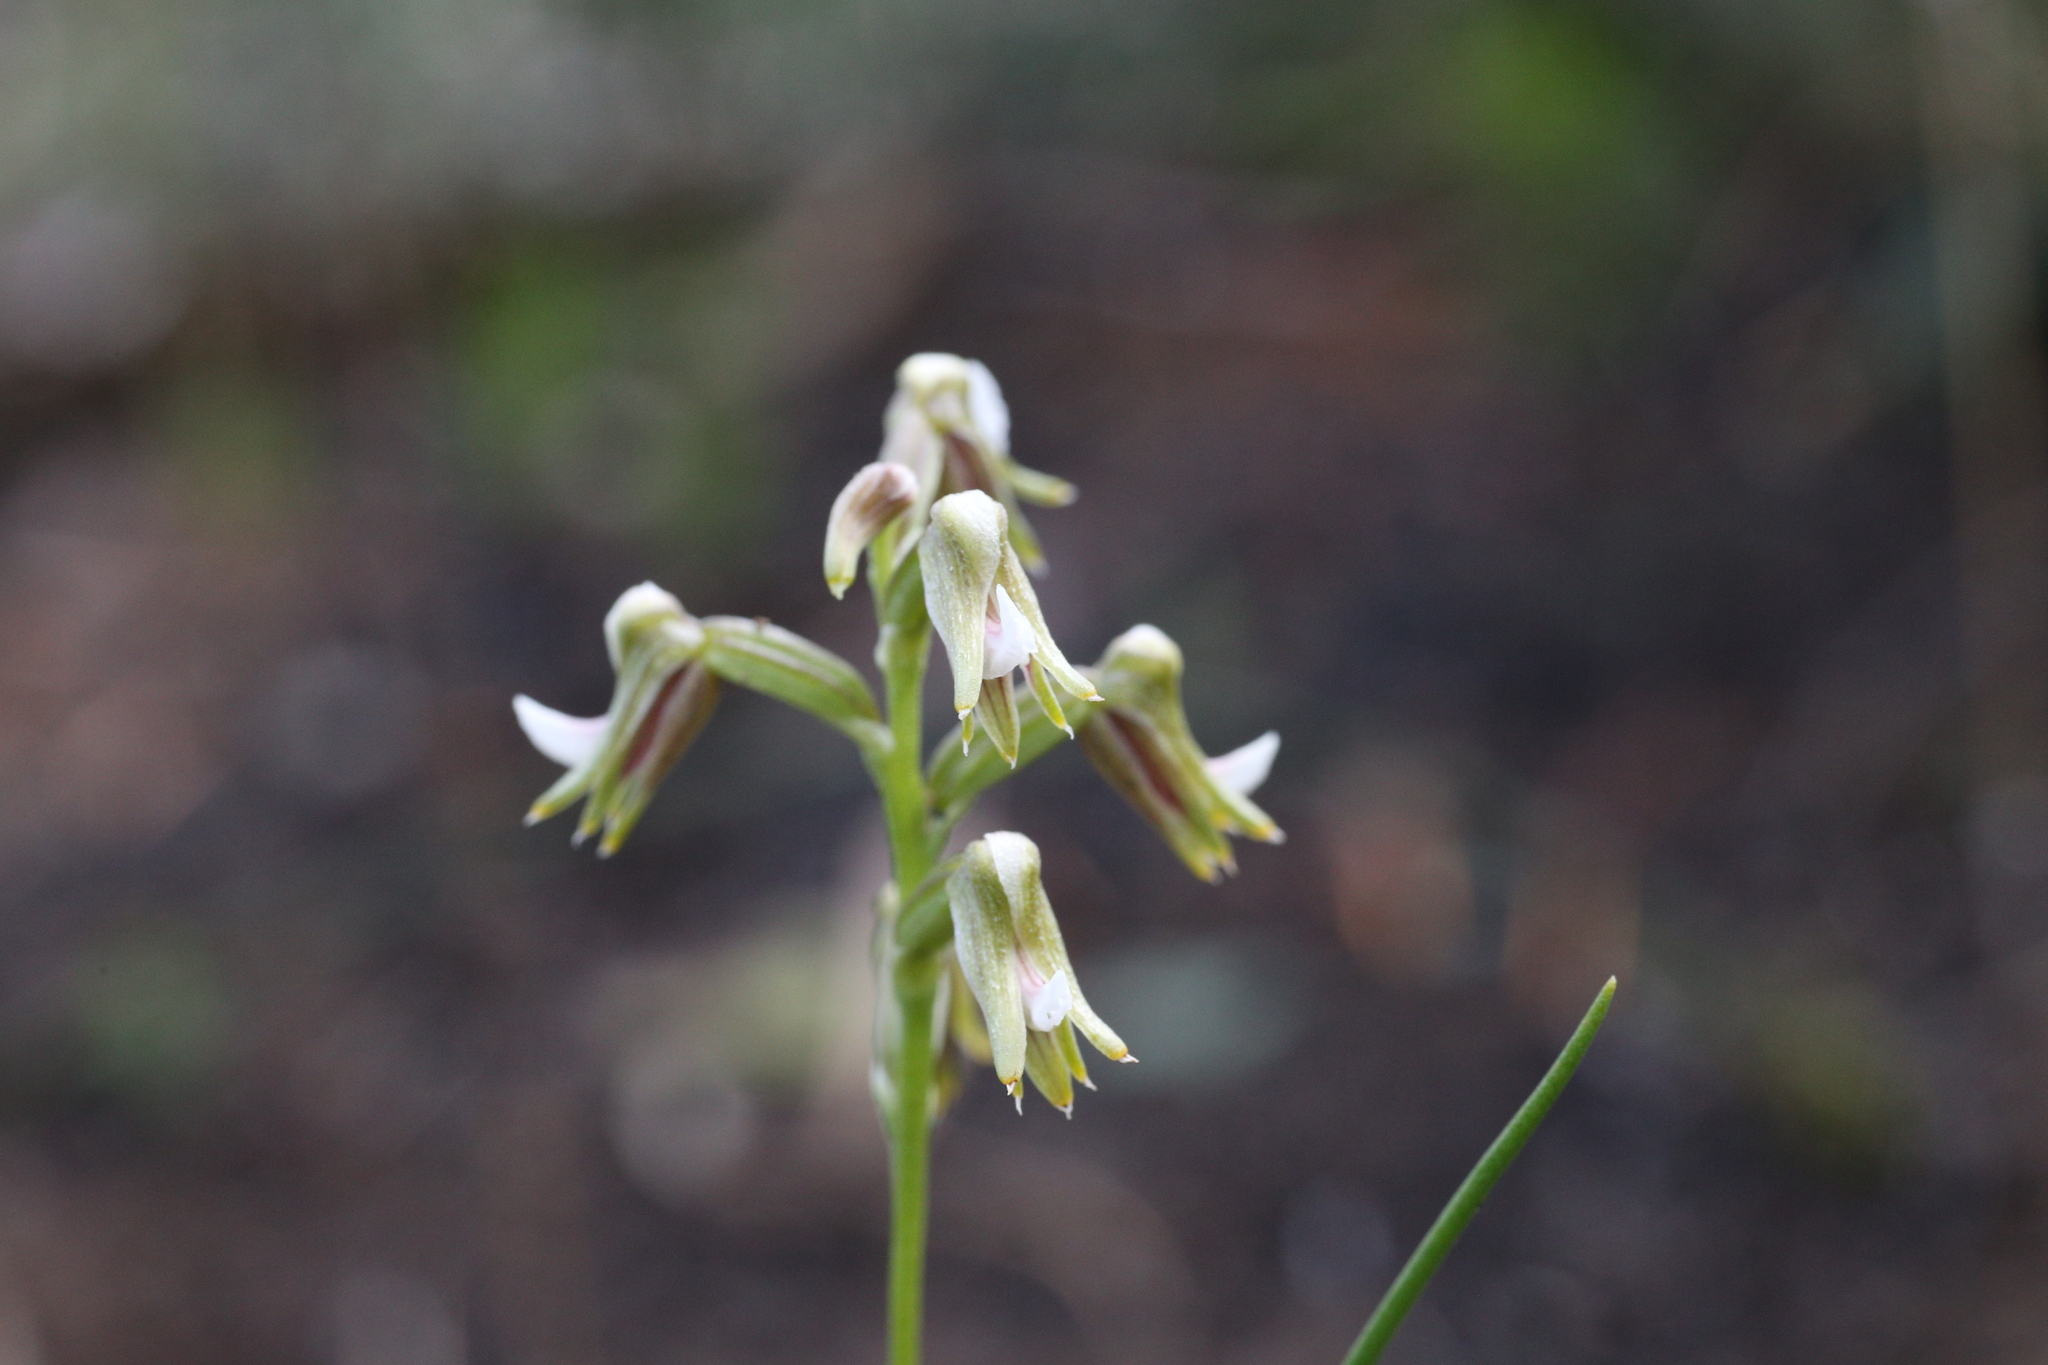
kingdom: Plantae
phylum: Tracheophyta
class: Liliopsida
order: Asparagales
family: Orchidaceae
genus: Prasophyllum
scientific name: Prasophyllum parvifolium
